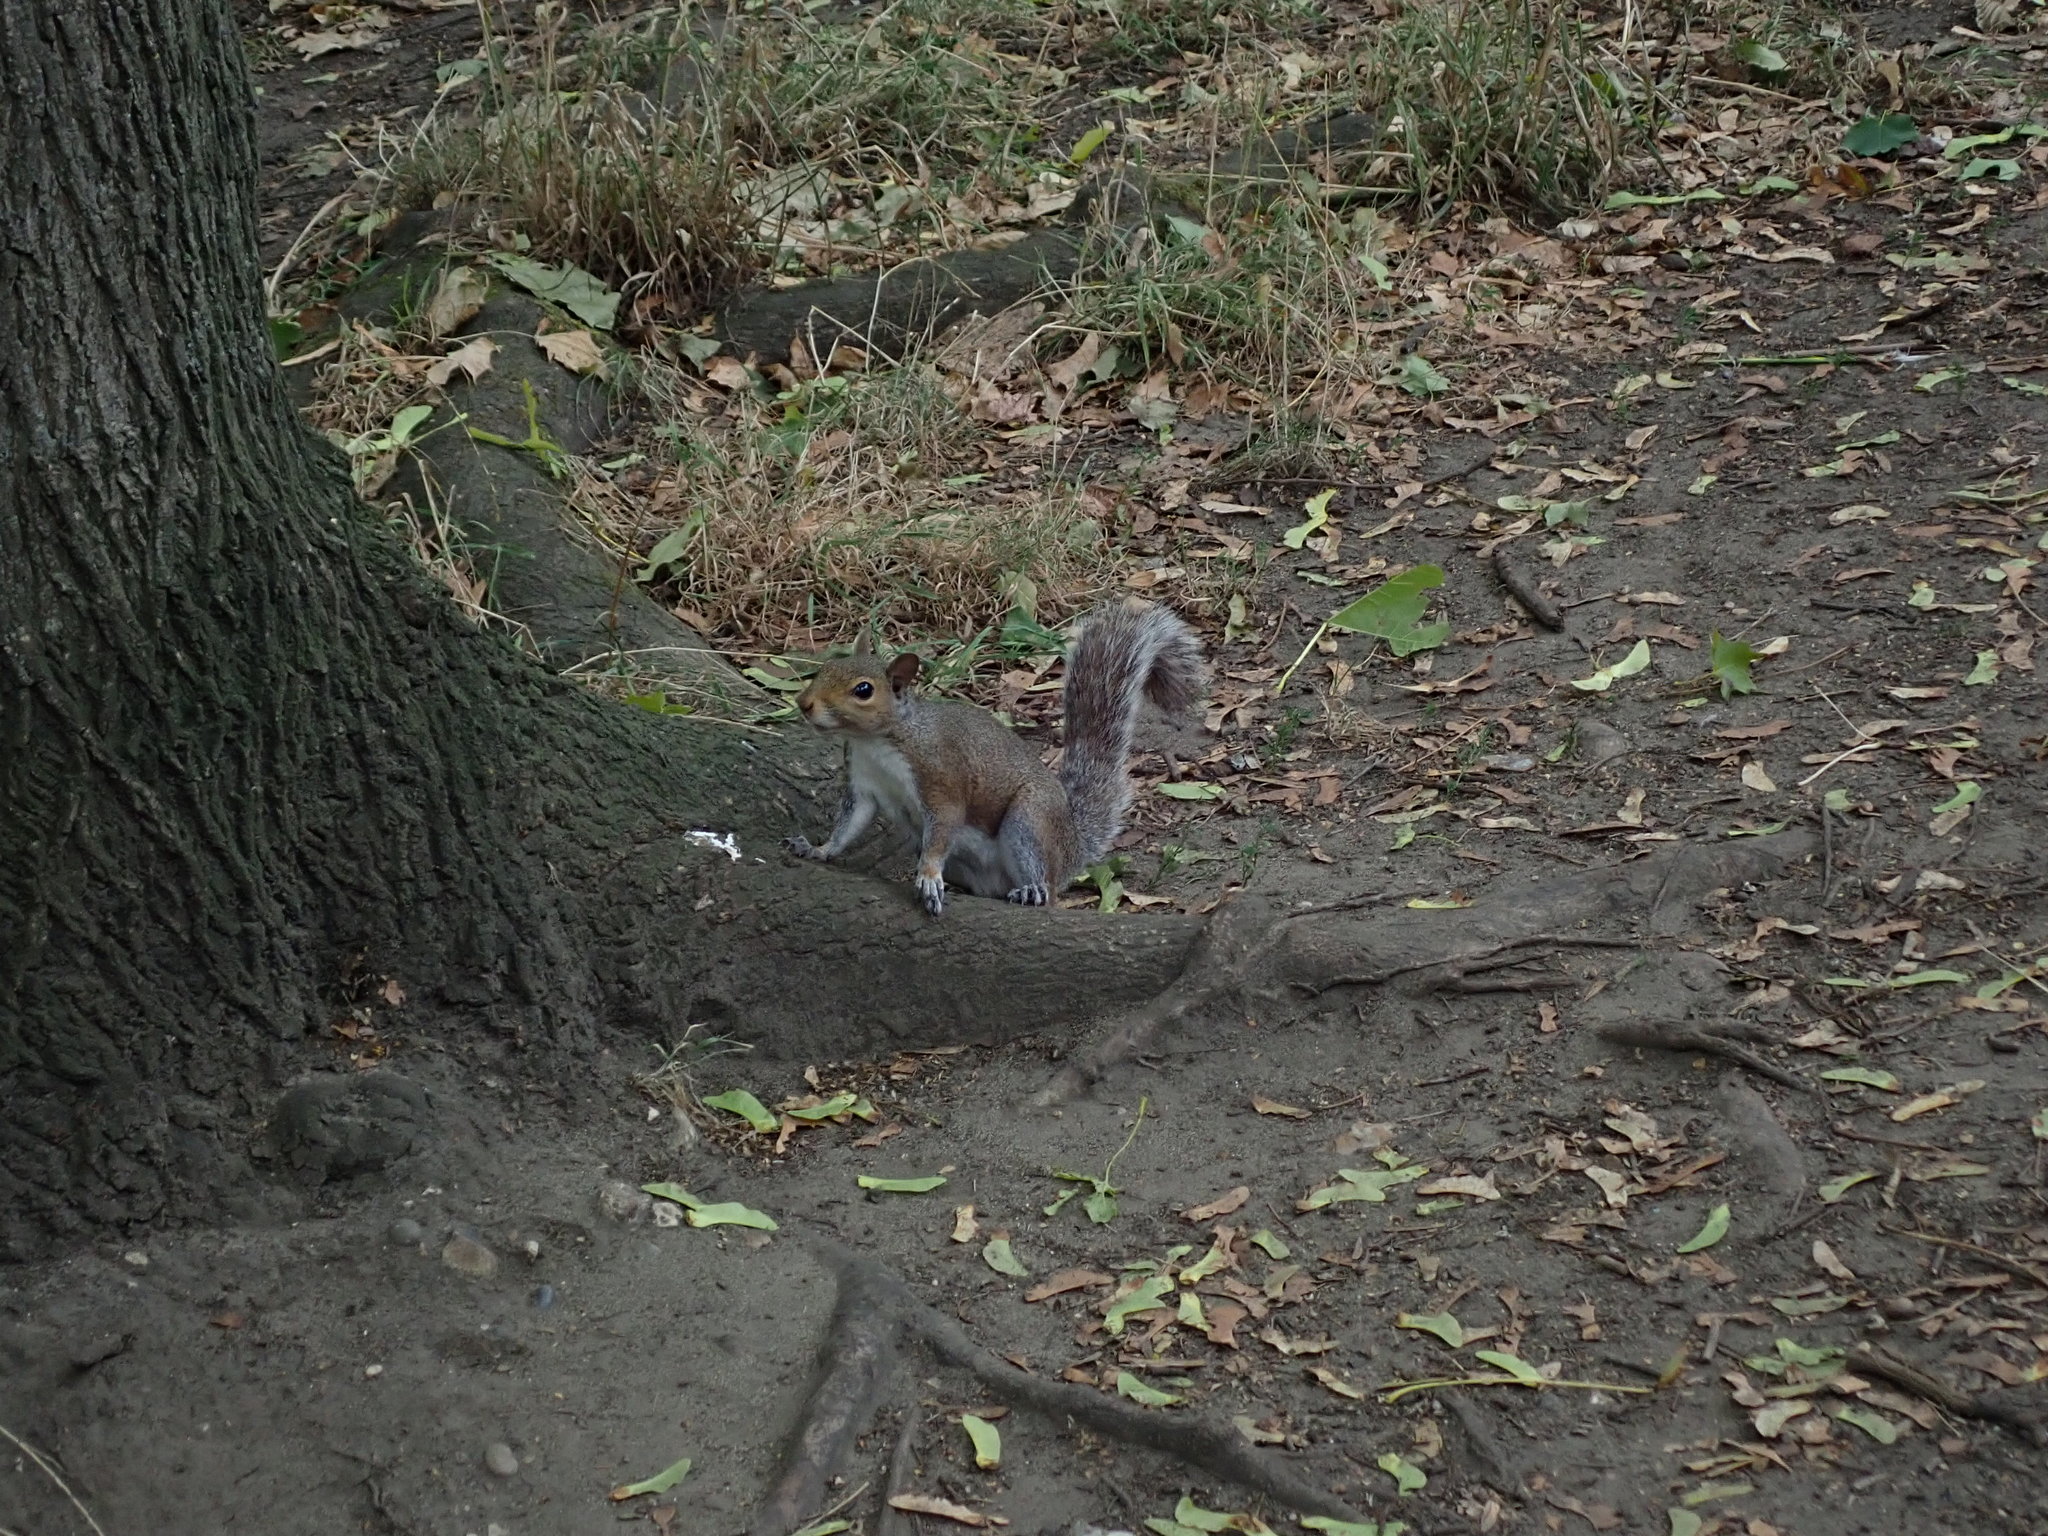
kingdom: Animalia
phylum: Chordata
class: Mammalia
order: Rodentia
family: Sciuridae
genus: Sciurus
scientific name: Sciurus carolinensis
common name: Eastern gray squirrel
